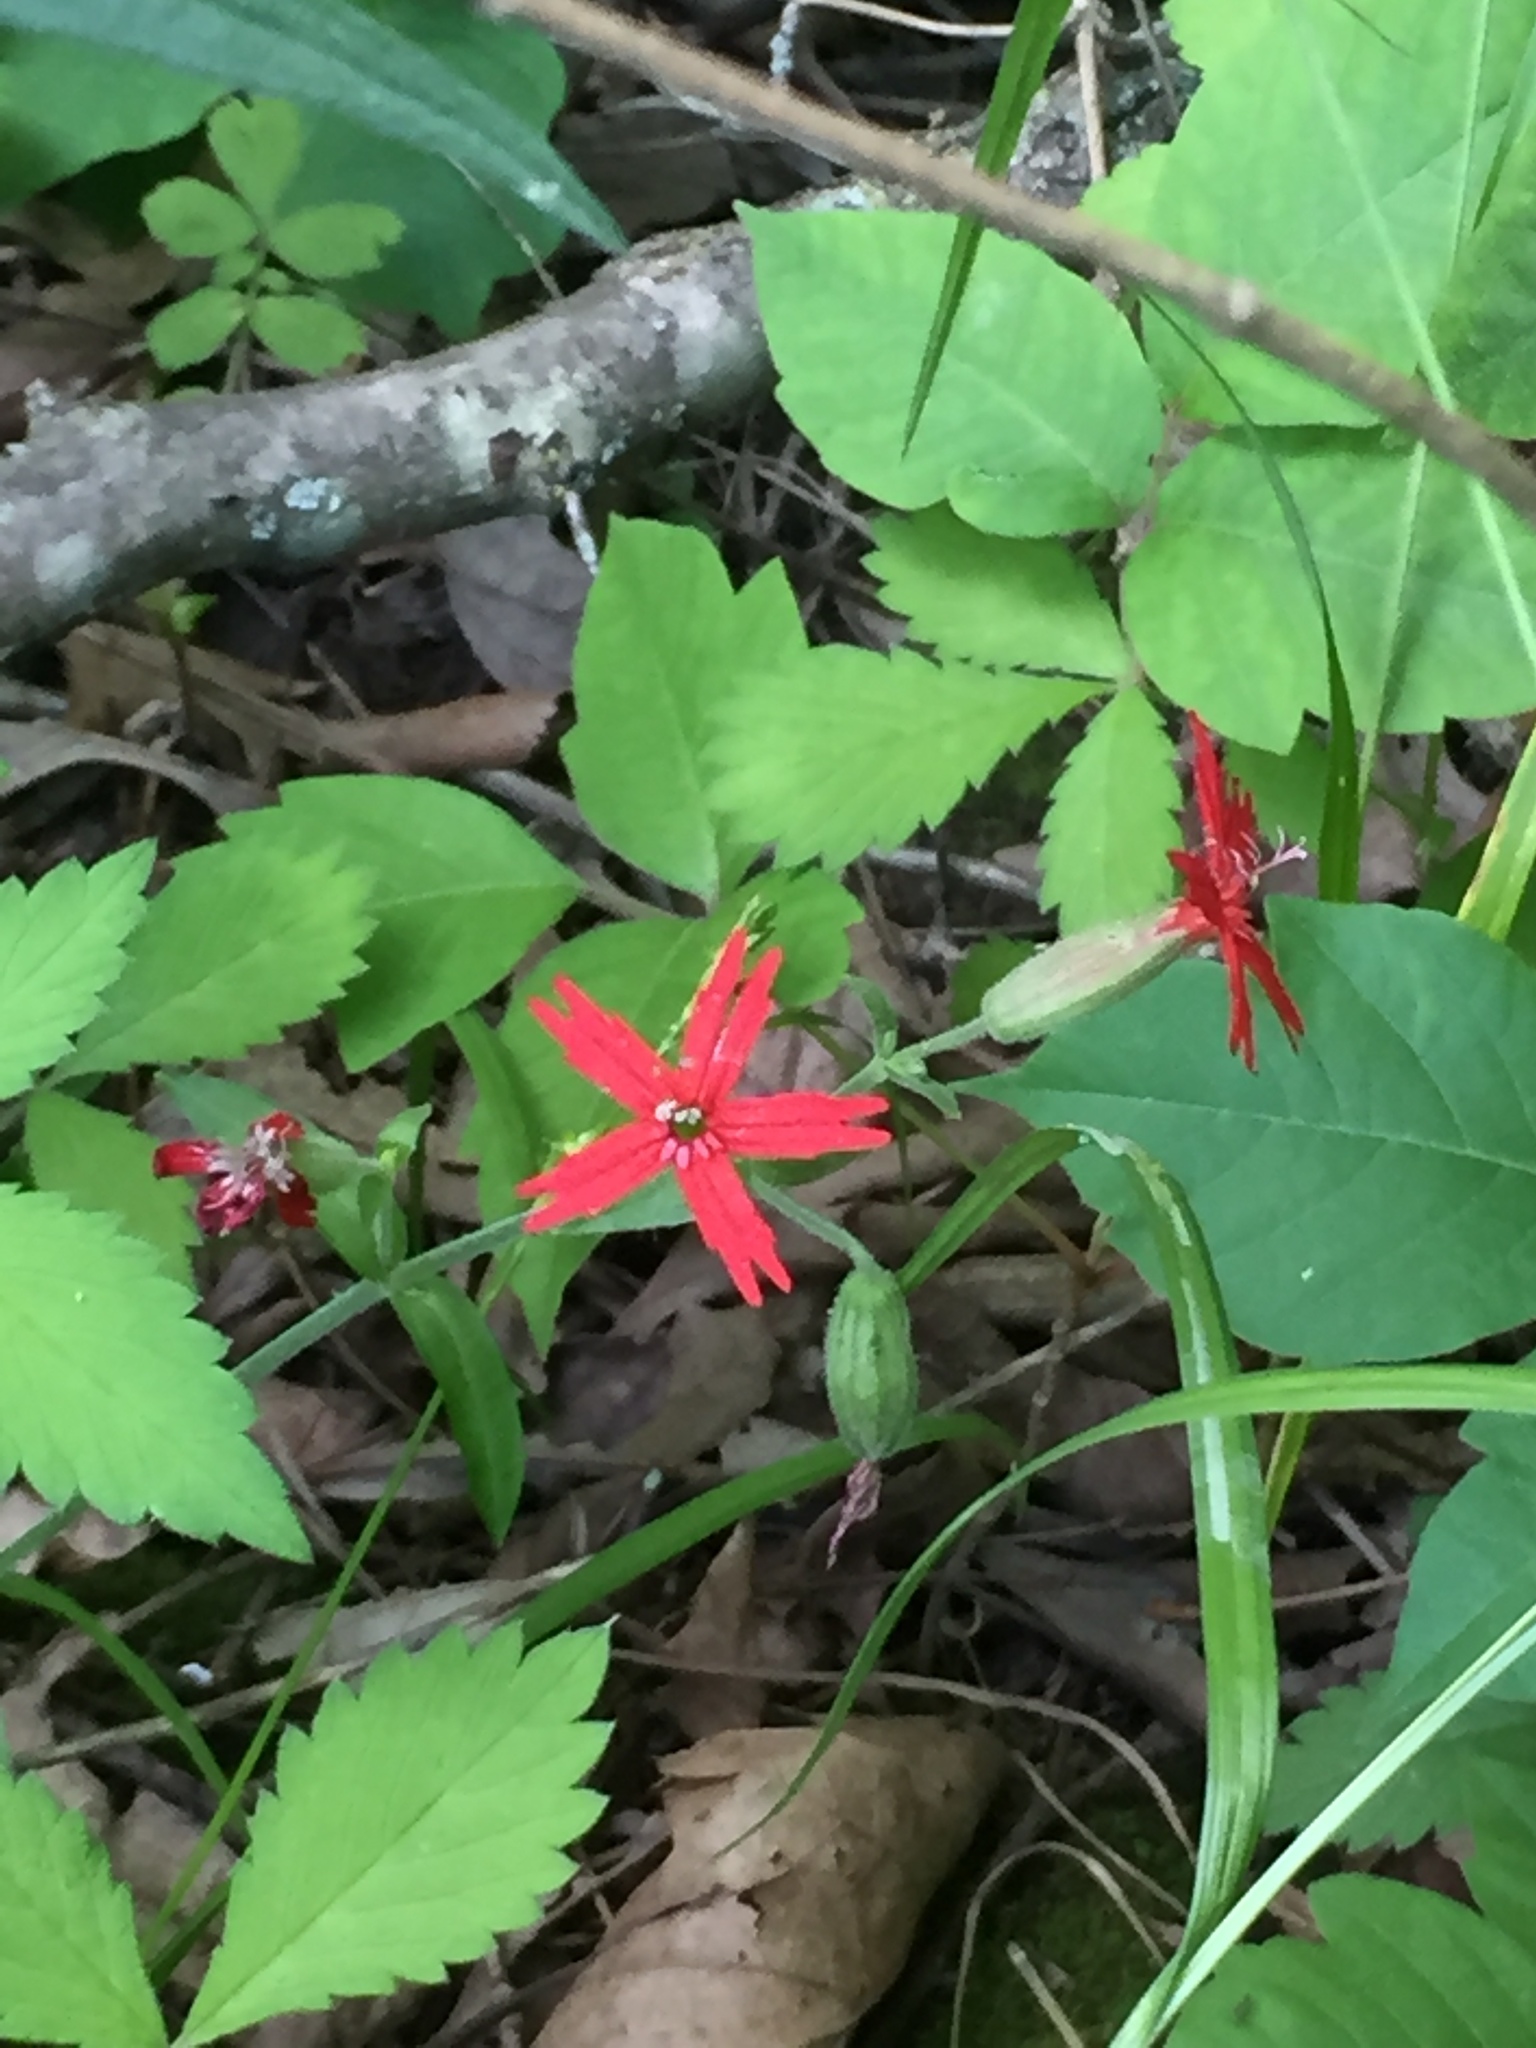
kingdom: Plantae
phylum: Tracheophyta
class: Magnoliopsida
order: Caryophyllales
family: Caryophyllaceae
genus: Silene
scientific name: Silene virginica
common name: Fire-pink
